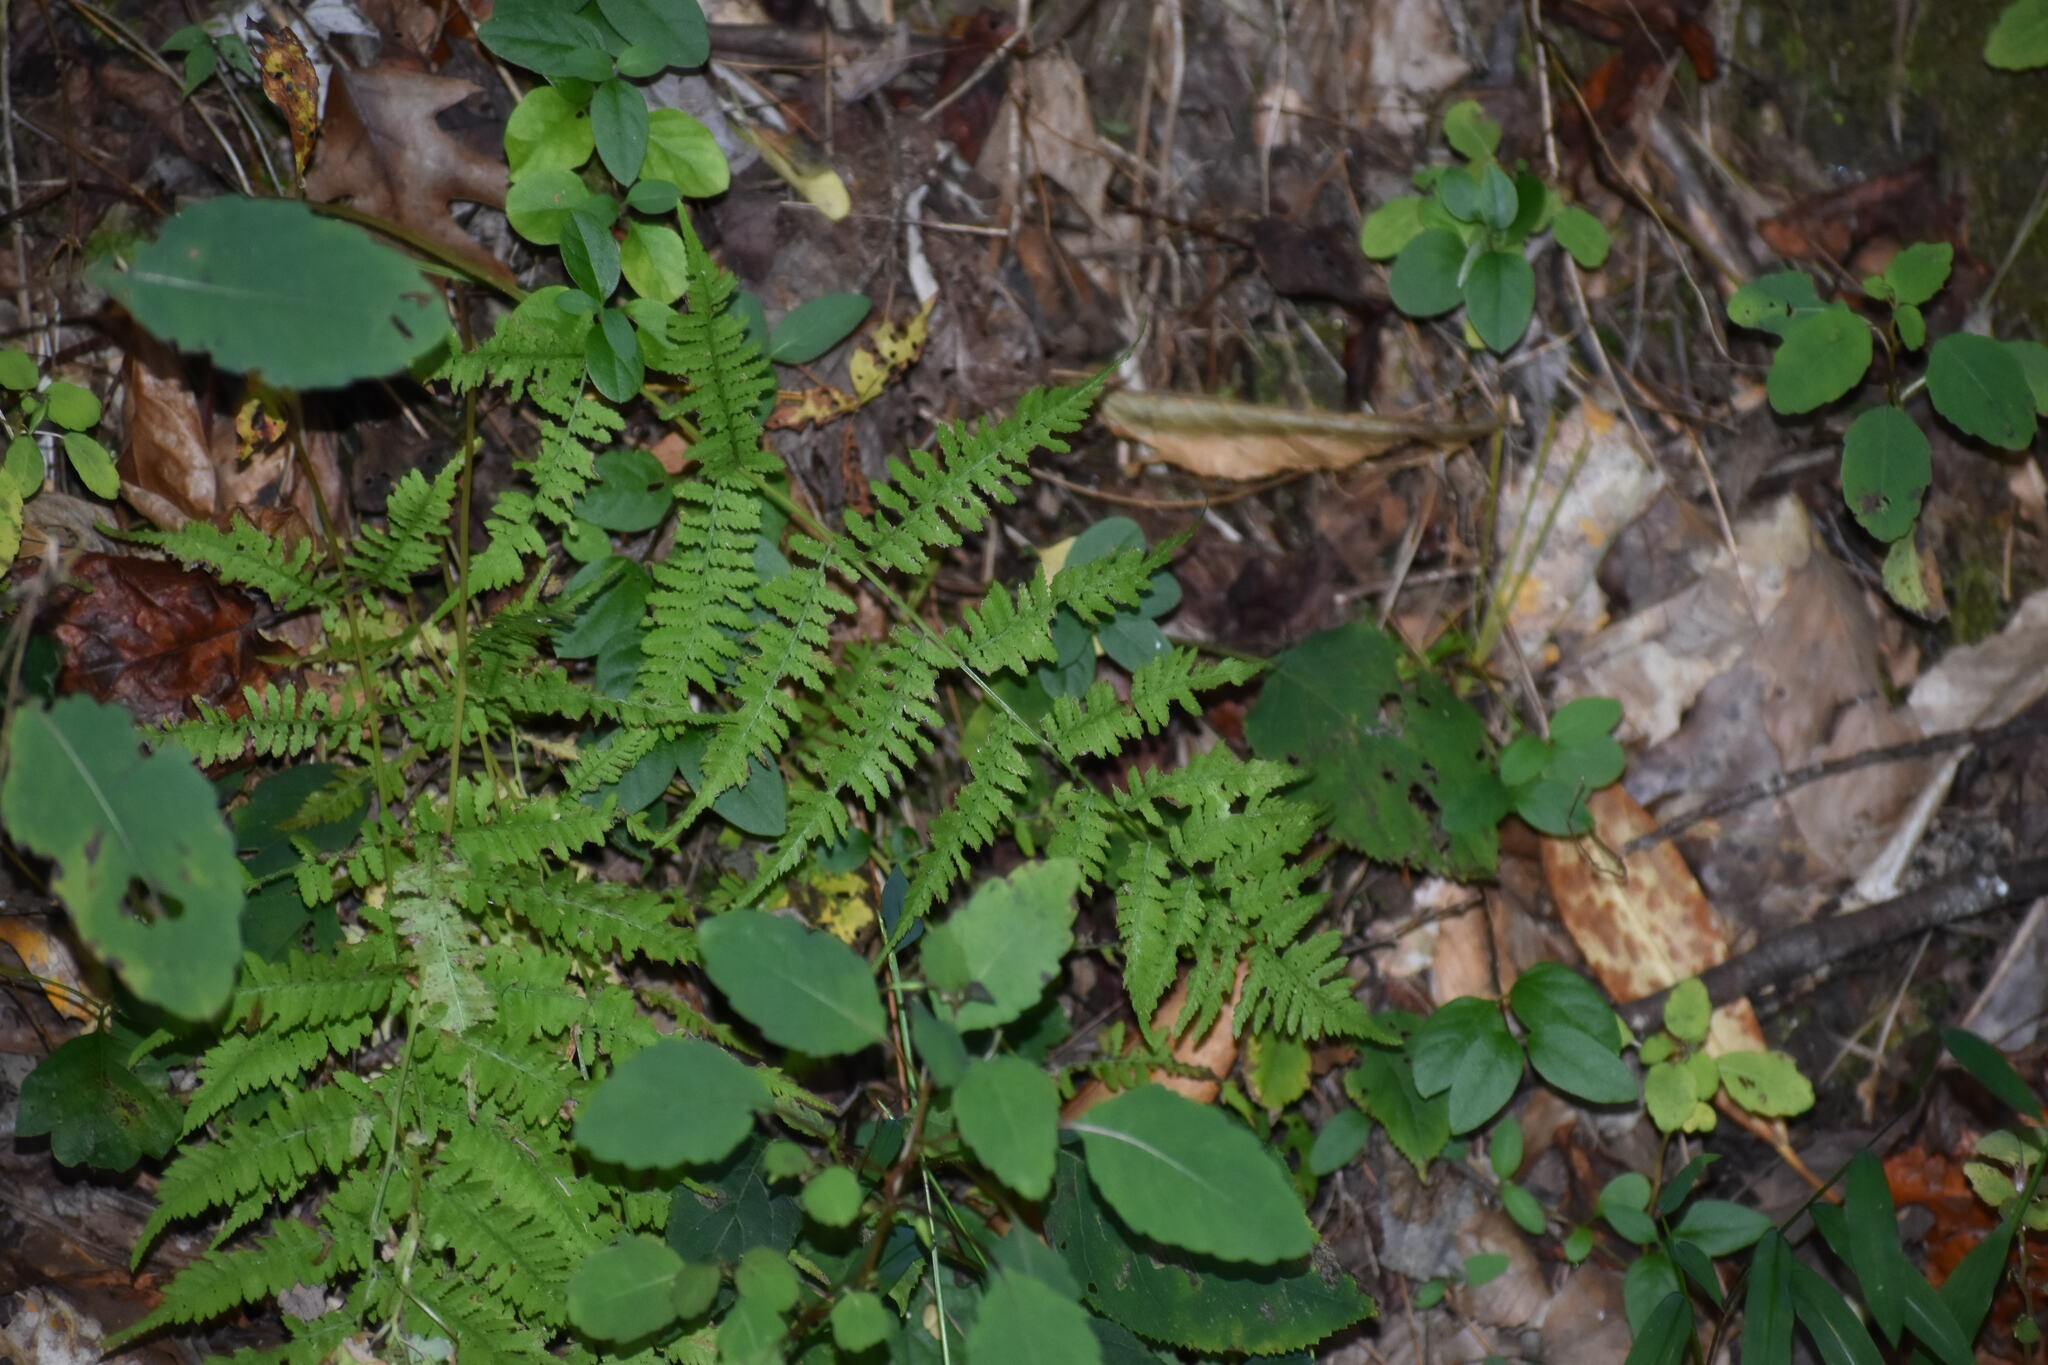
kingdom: Plantae
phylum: Tracheophyta
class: Polypodiopsida
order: Polypodiales
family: Athyriaceae
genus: Athyrium
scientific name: Athyrium asplenioides
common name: Southern lady fern
